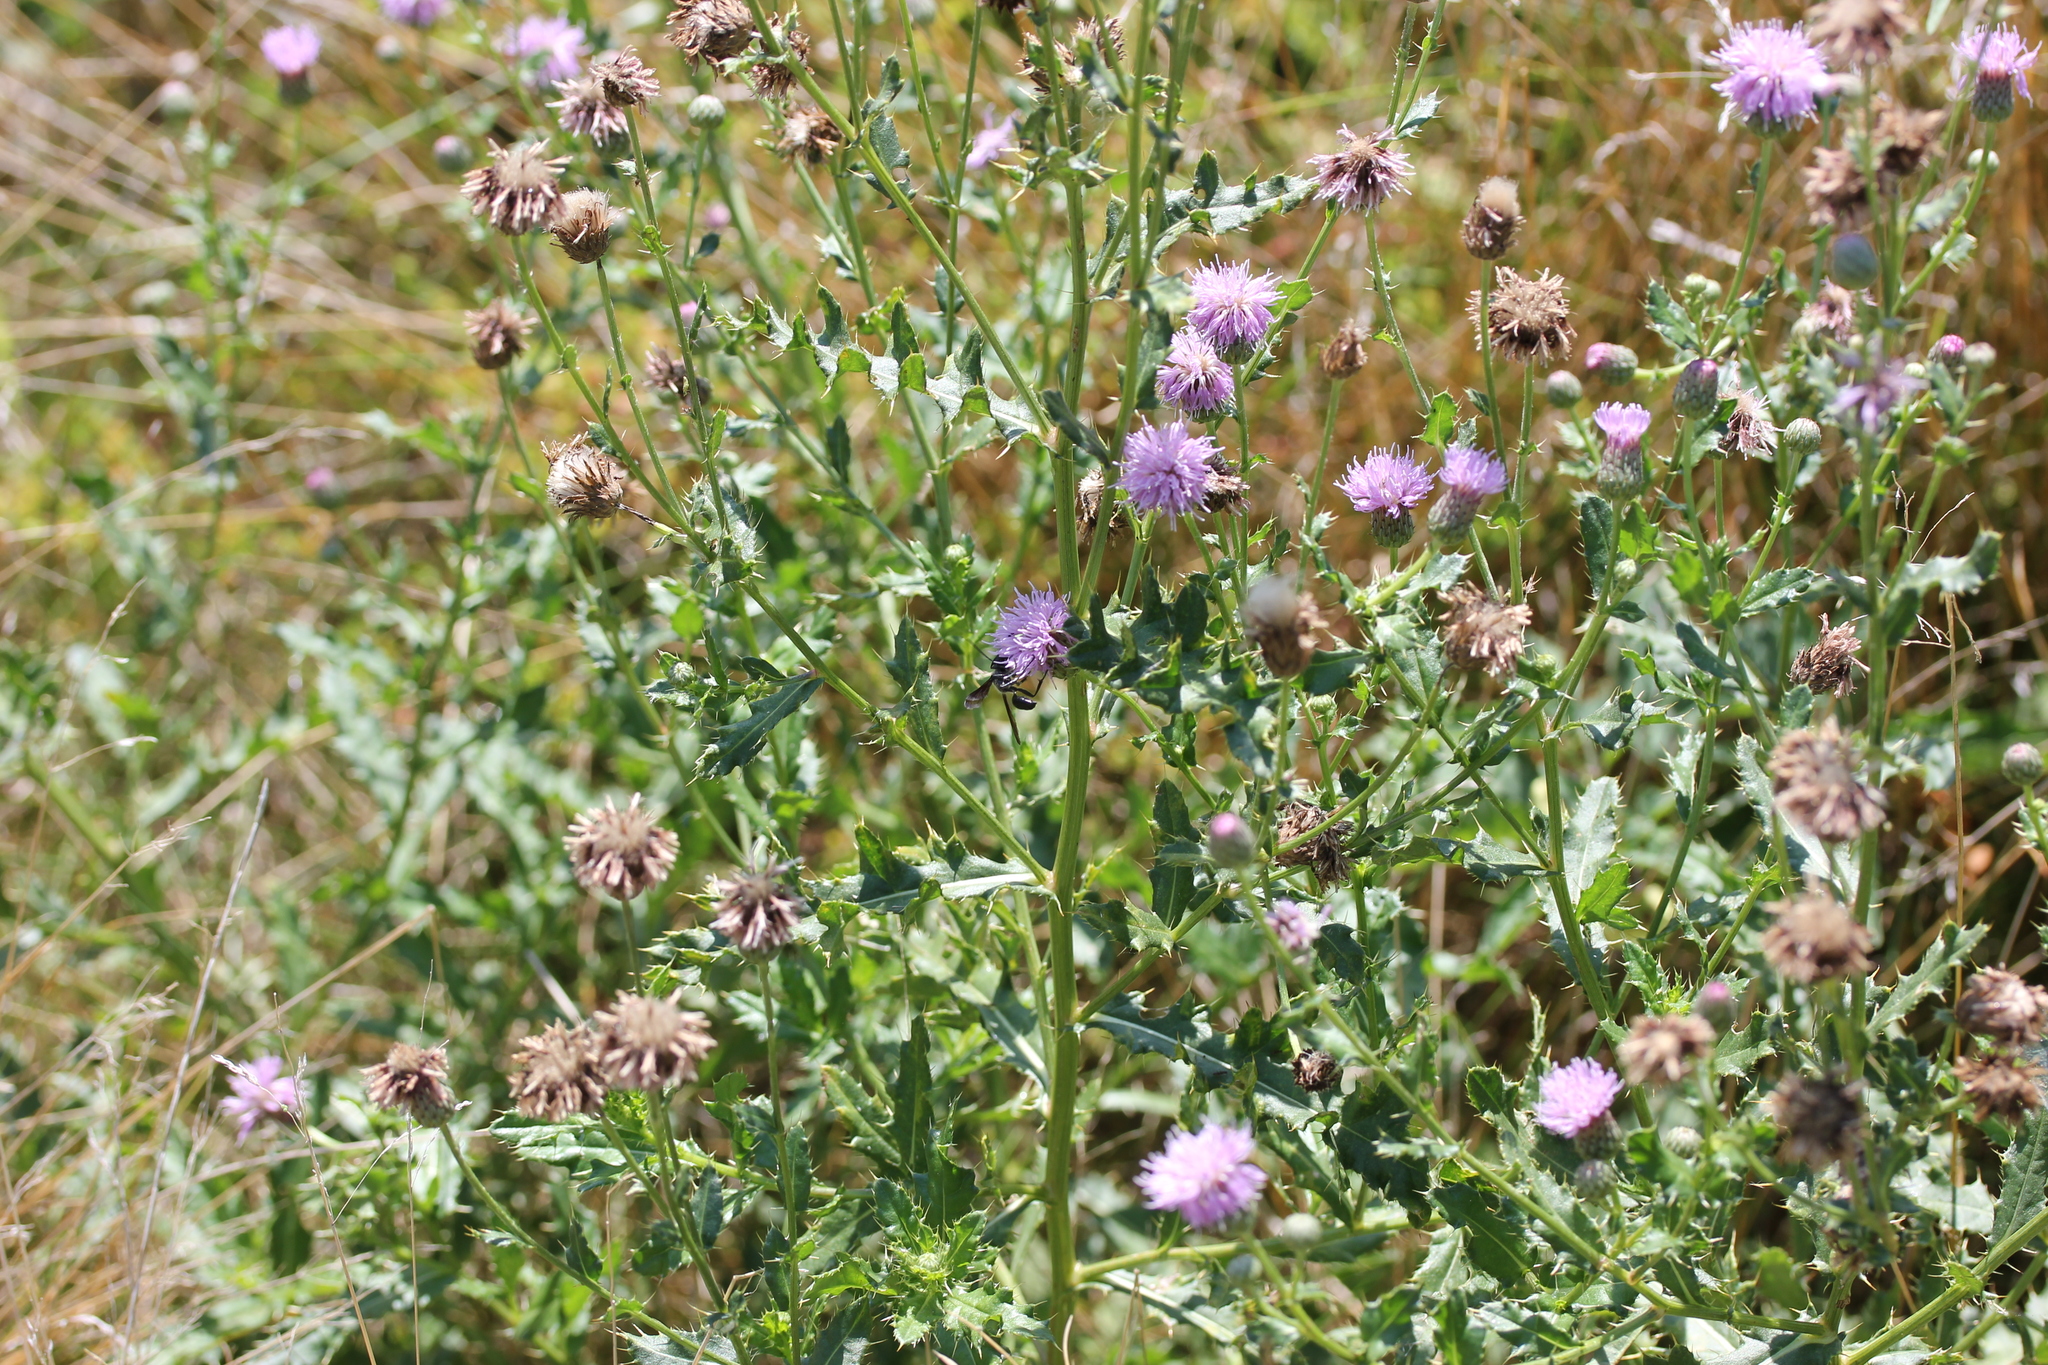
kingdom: Plantae
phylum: Tracheophyta
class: Magnoliopsida
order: Asterales
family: Asteraceae
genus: Cirsium
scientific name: Cirsium arvense
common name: Creeping thistle
